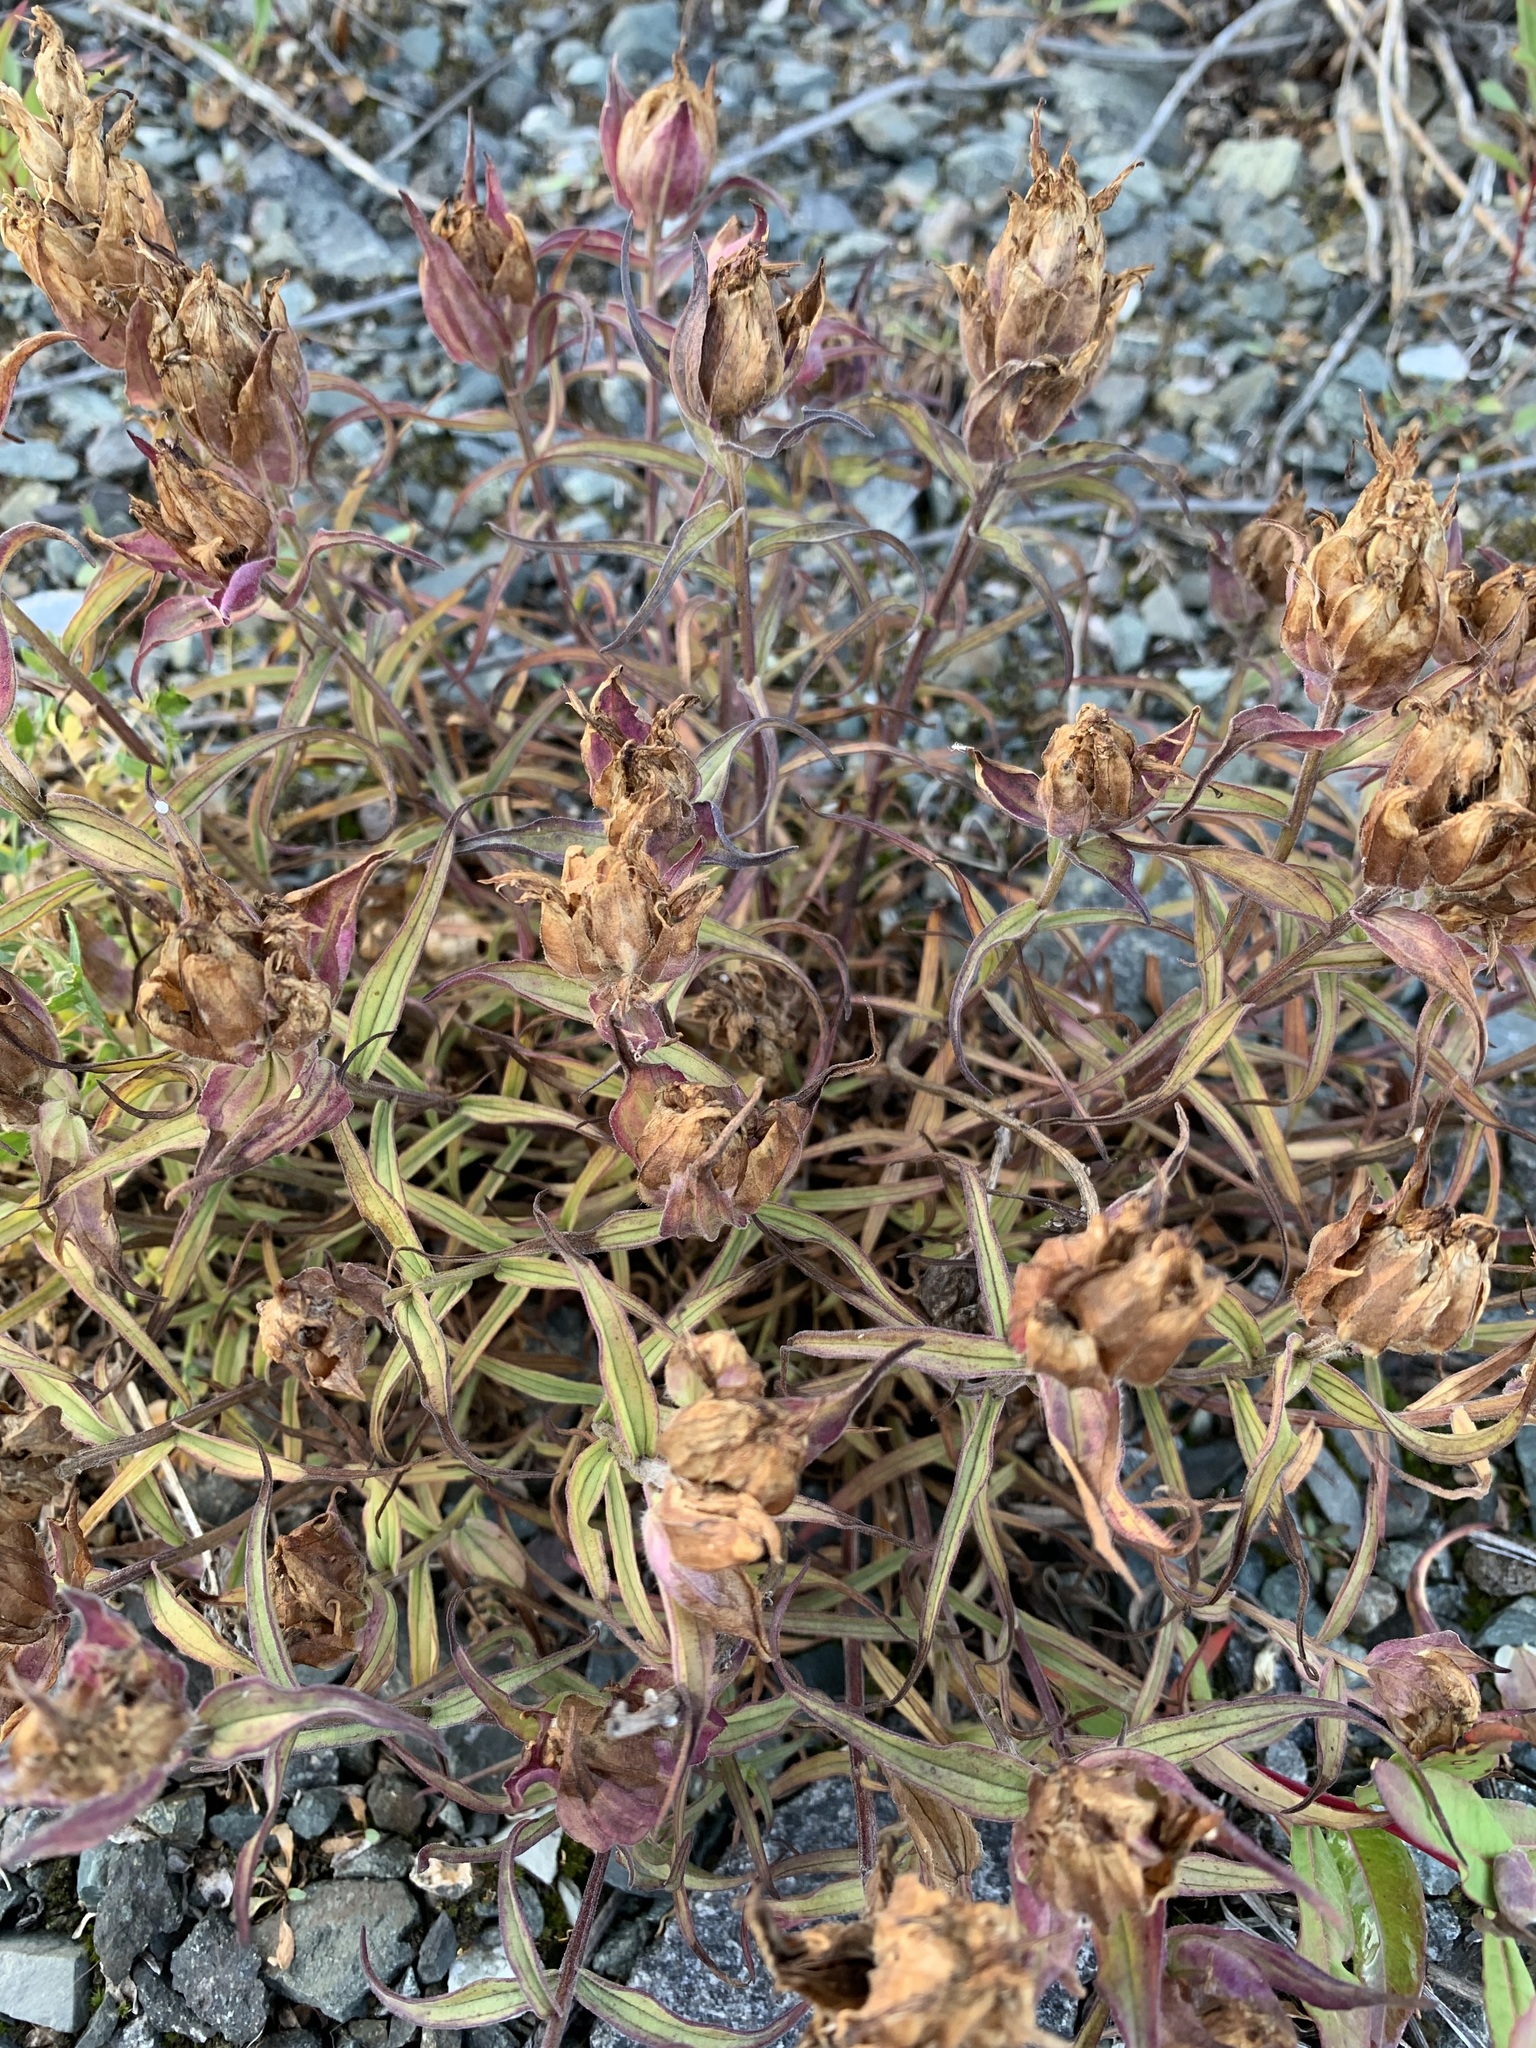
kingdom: Plantae
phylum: Tracheophyta
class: Magnoliopsida
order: Lamiales
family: Orobanchaceae
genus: Castilleja
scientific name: Castilleja arctica
